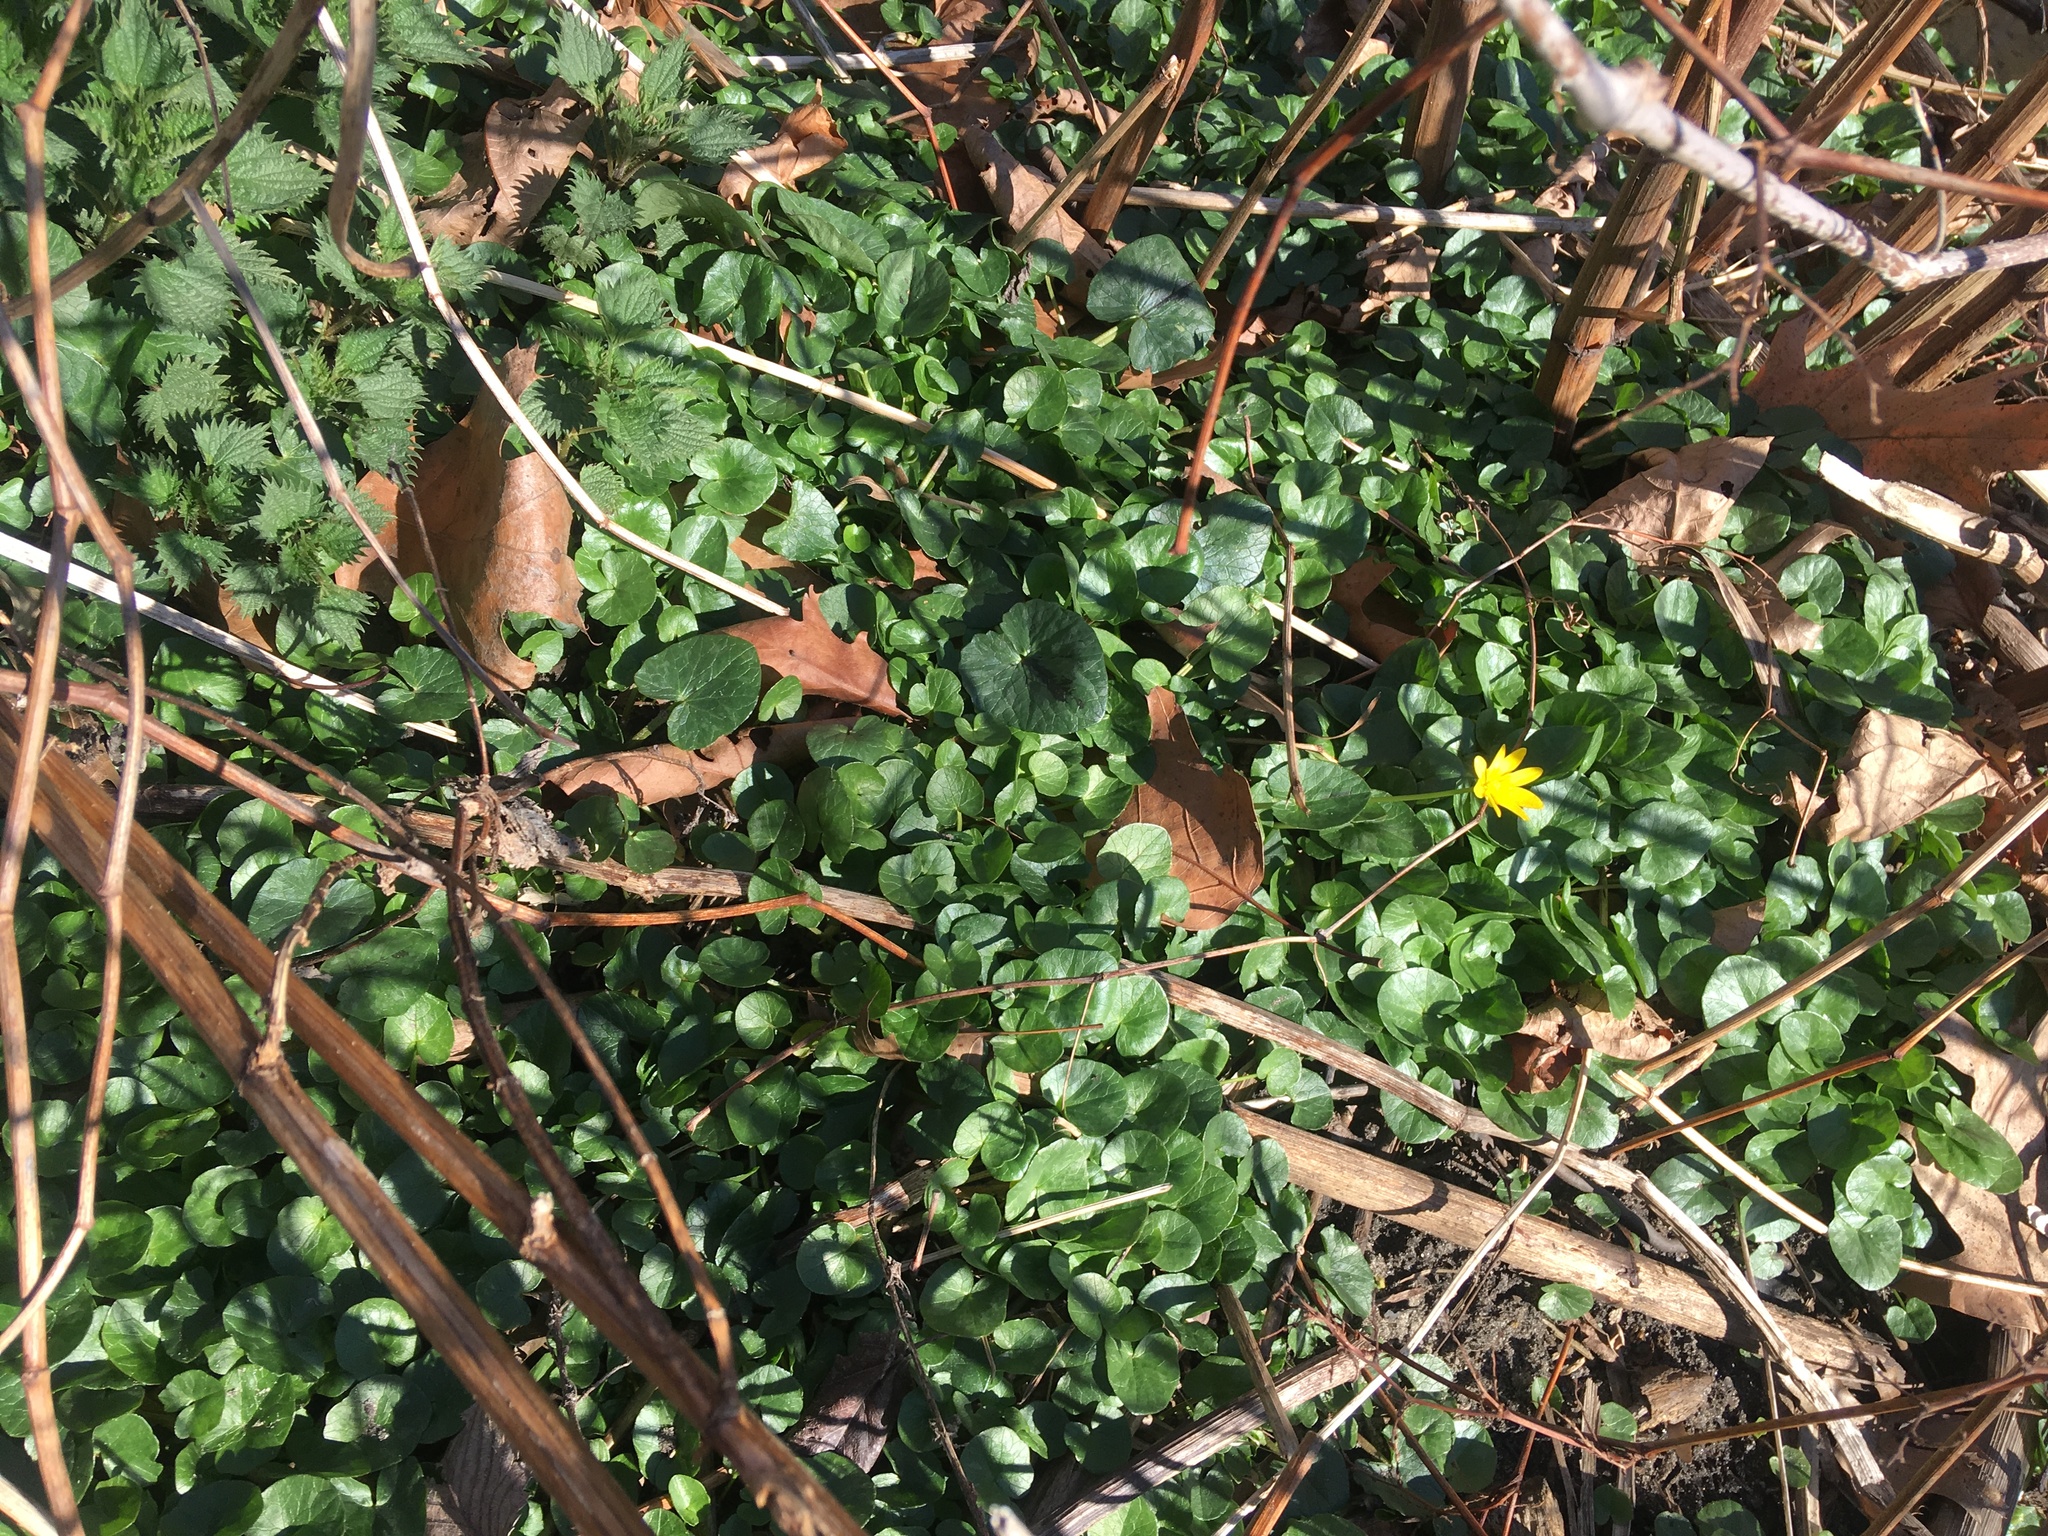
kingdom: Plantae
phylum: Tracheophyta
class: Magnoliopsida
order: Ranunculales
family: Ranunculaceae
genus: Ficaria
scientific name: Ficaria verna
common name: Lesser celandine
